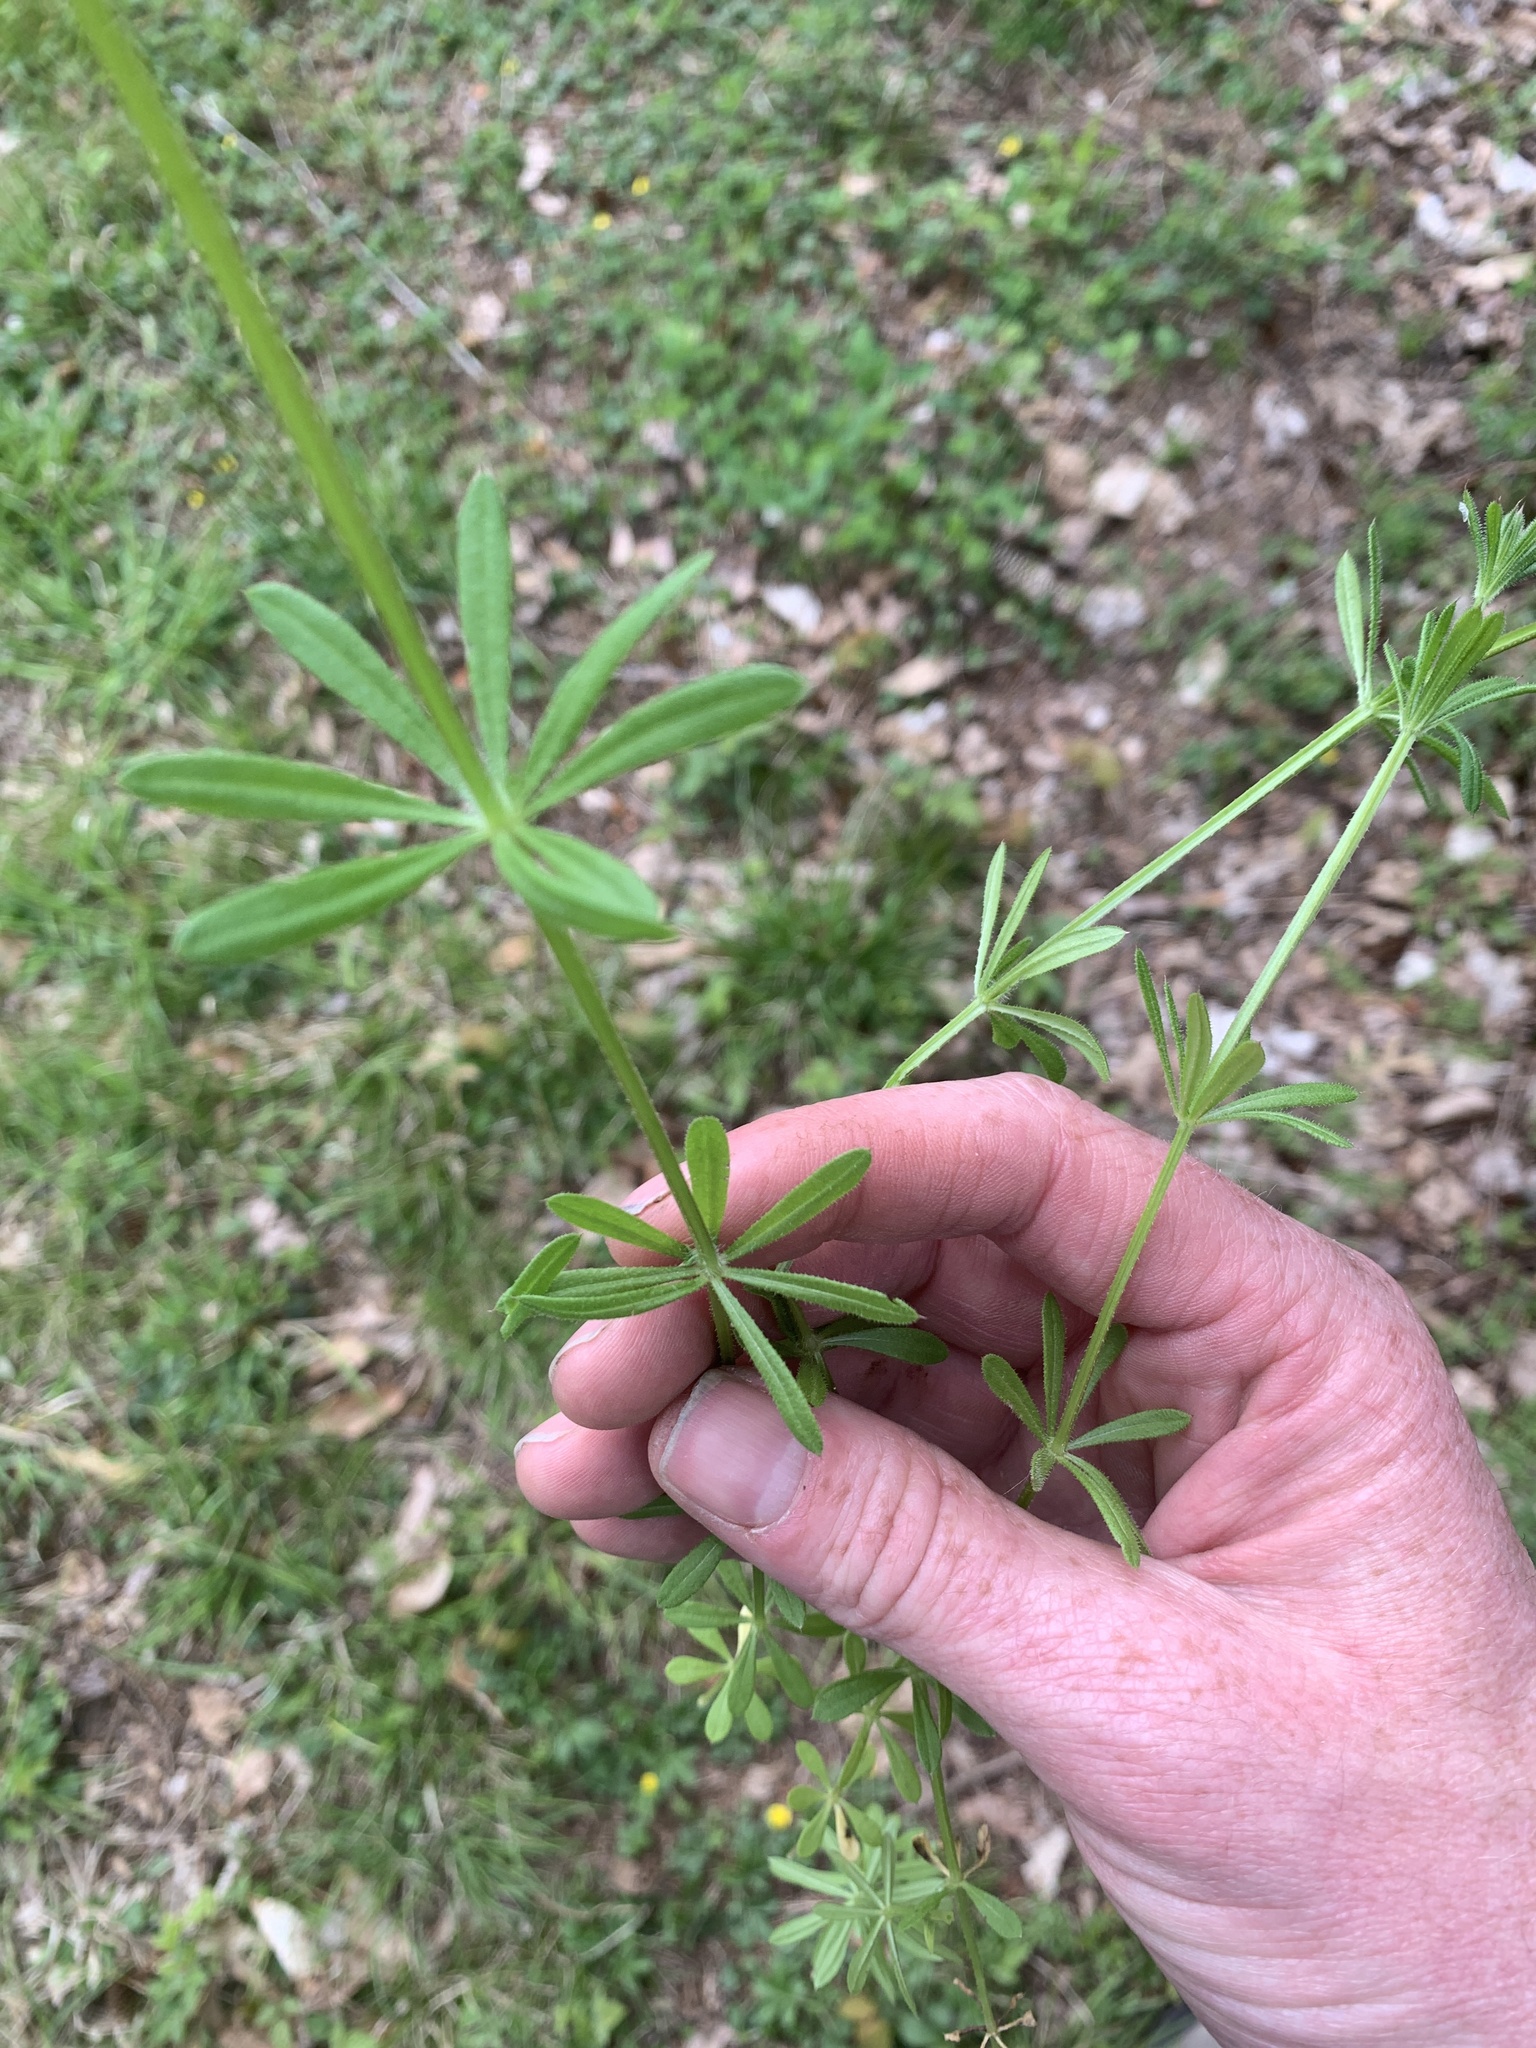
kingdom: Plantae
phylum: Tracheophyta
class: Magnoliopsida
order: Gentianales
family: Rubiaceae
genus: Galium
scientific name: Galium aparine
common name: Cleavers
